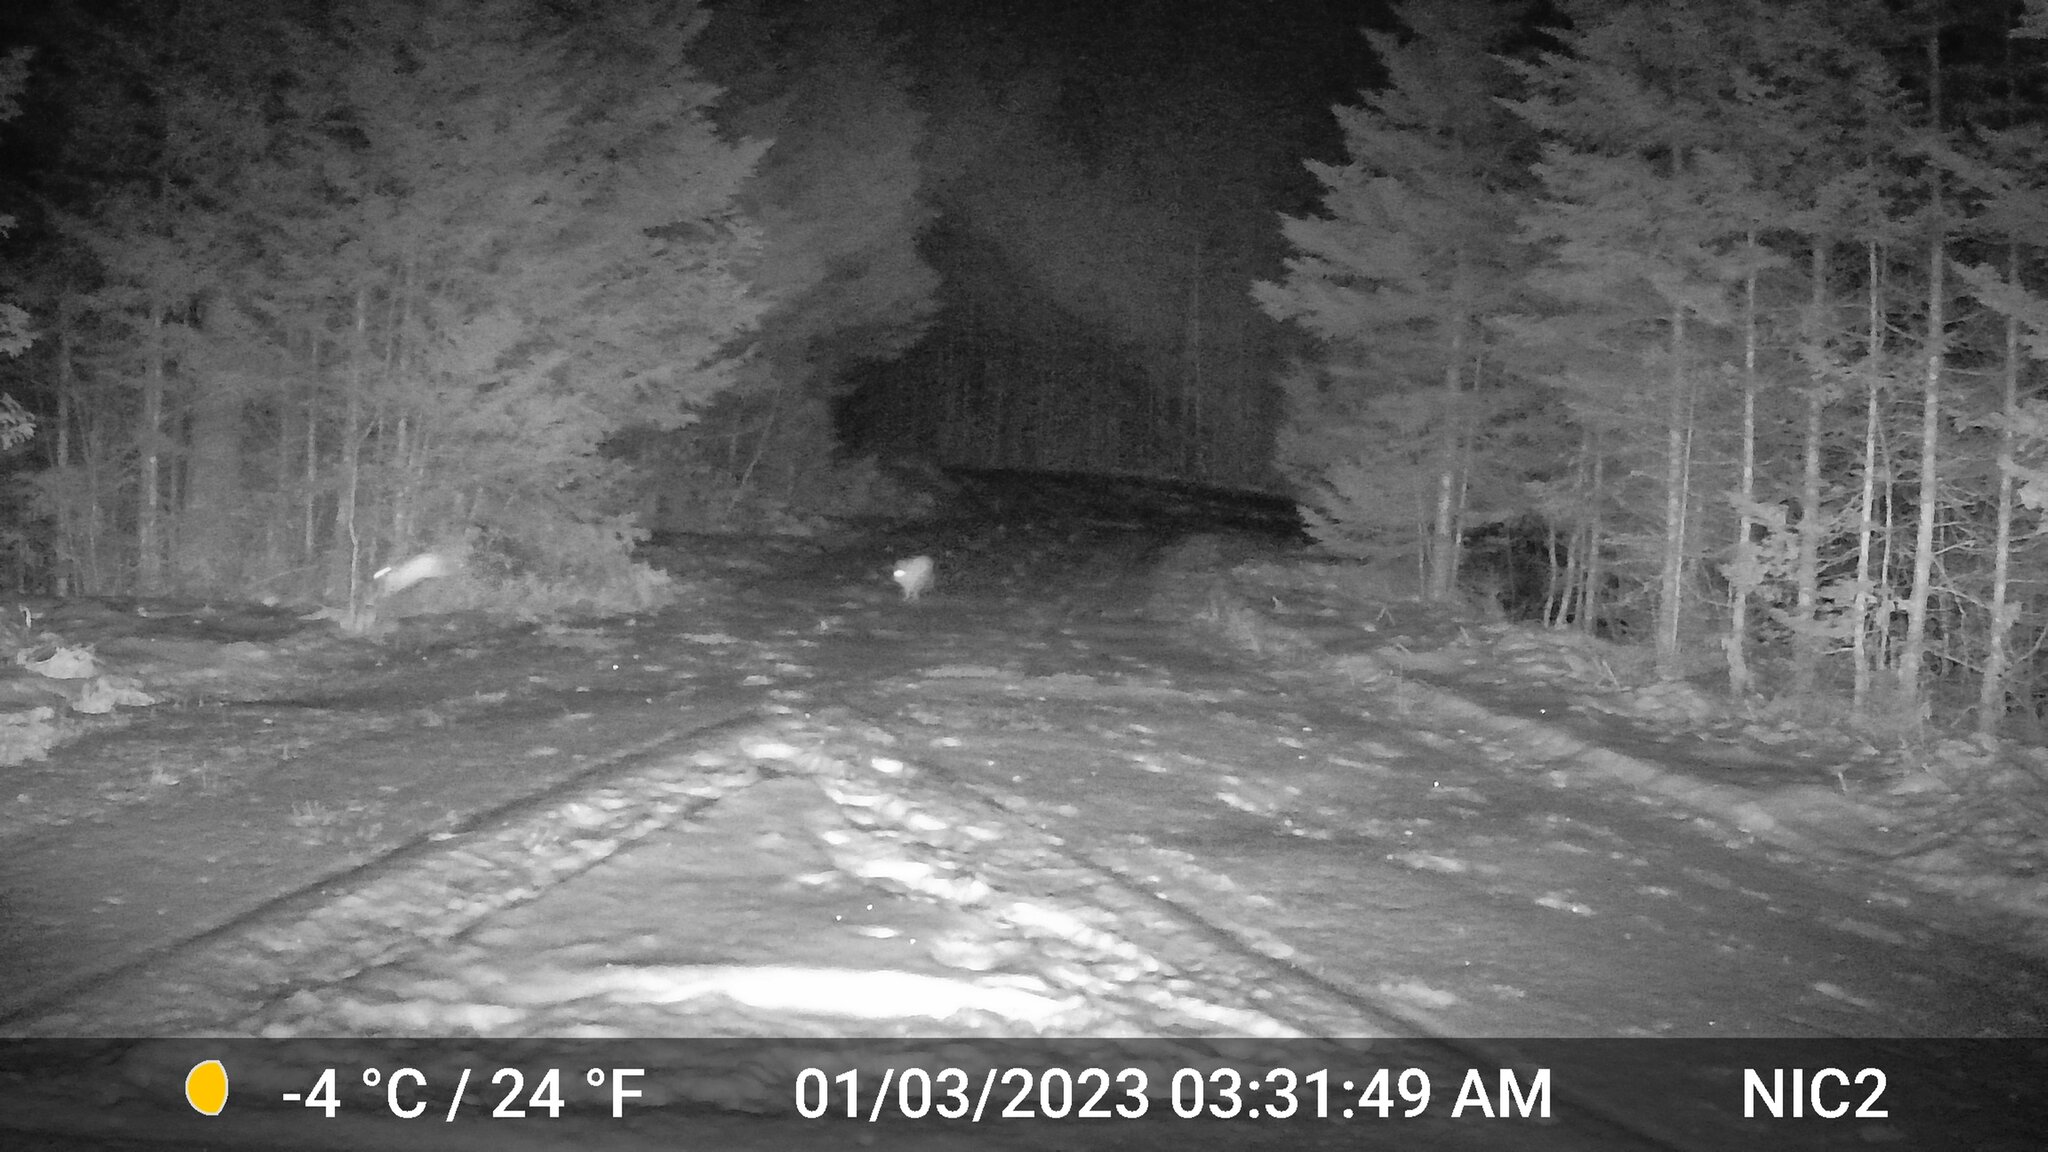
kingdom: Animalia
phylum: Chordata
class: Mammalia
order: Lagomorpha
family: Leporidae
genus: Lepus
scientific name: Lepus americanus
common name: Snowshoe hare
